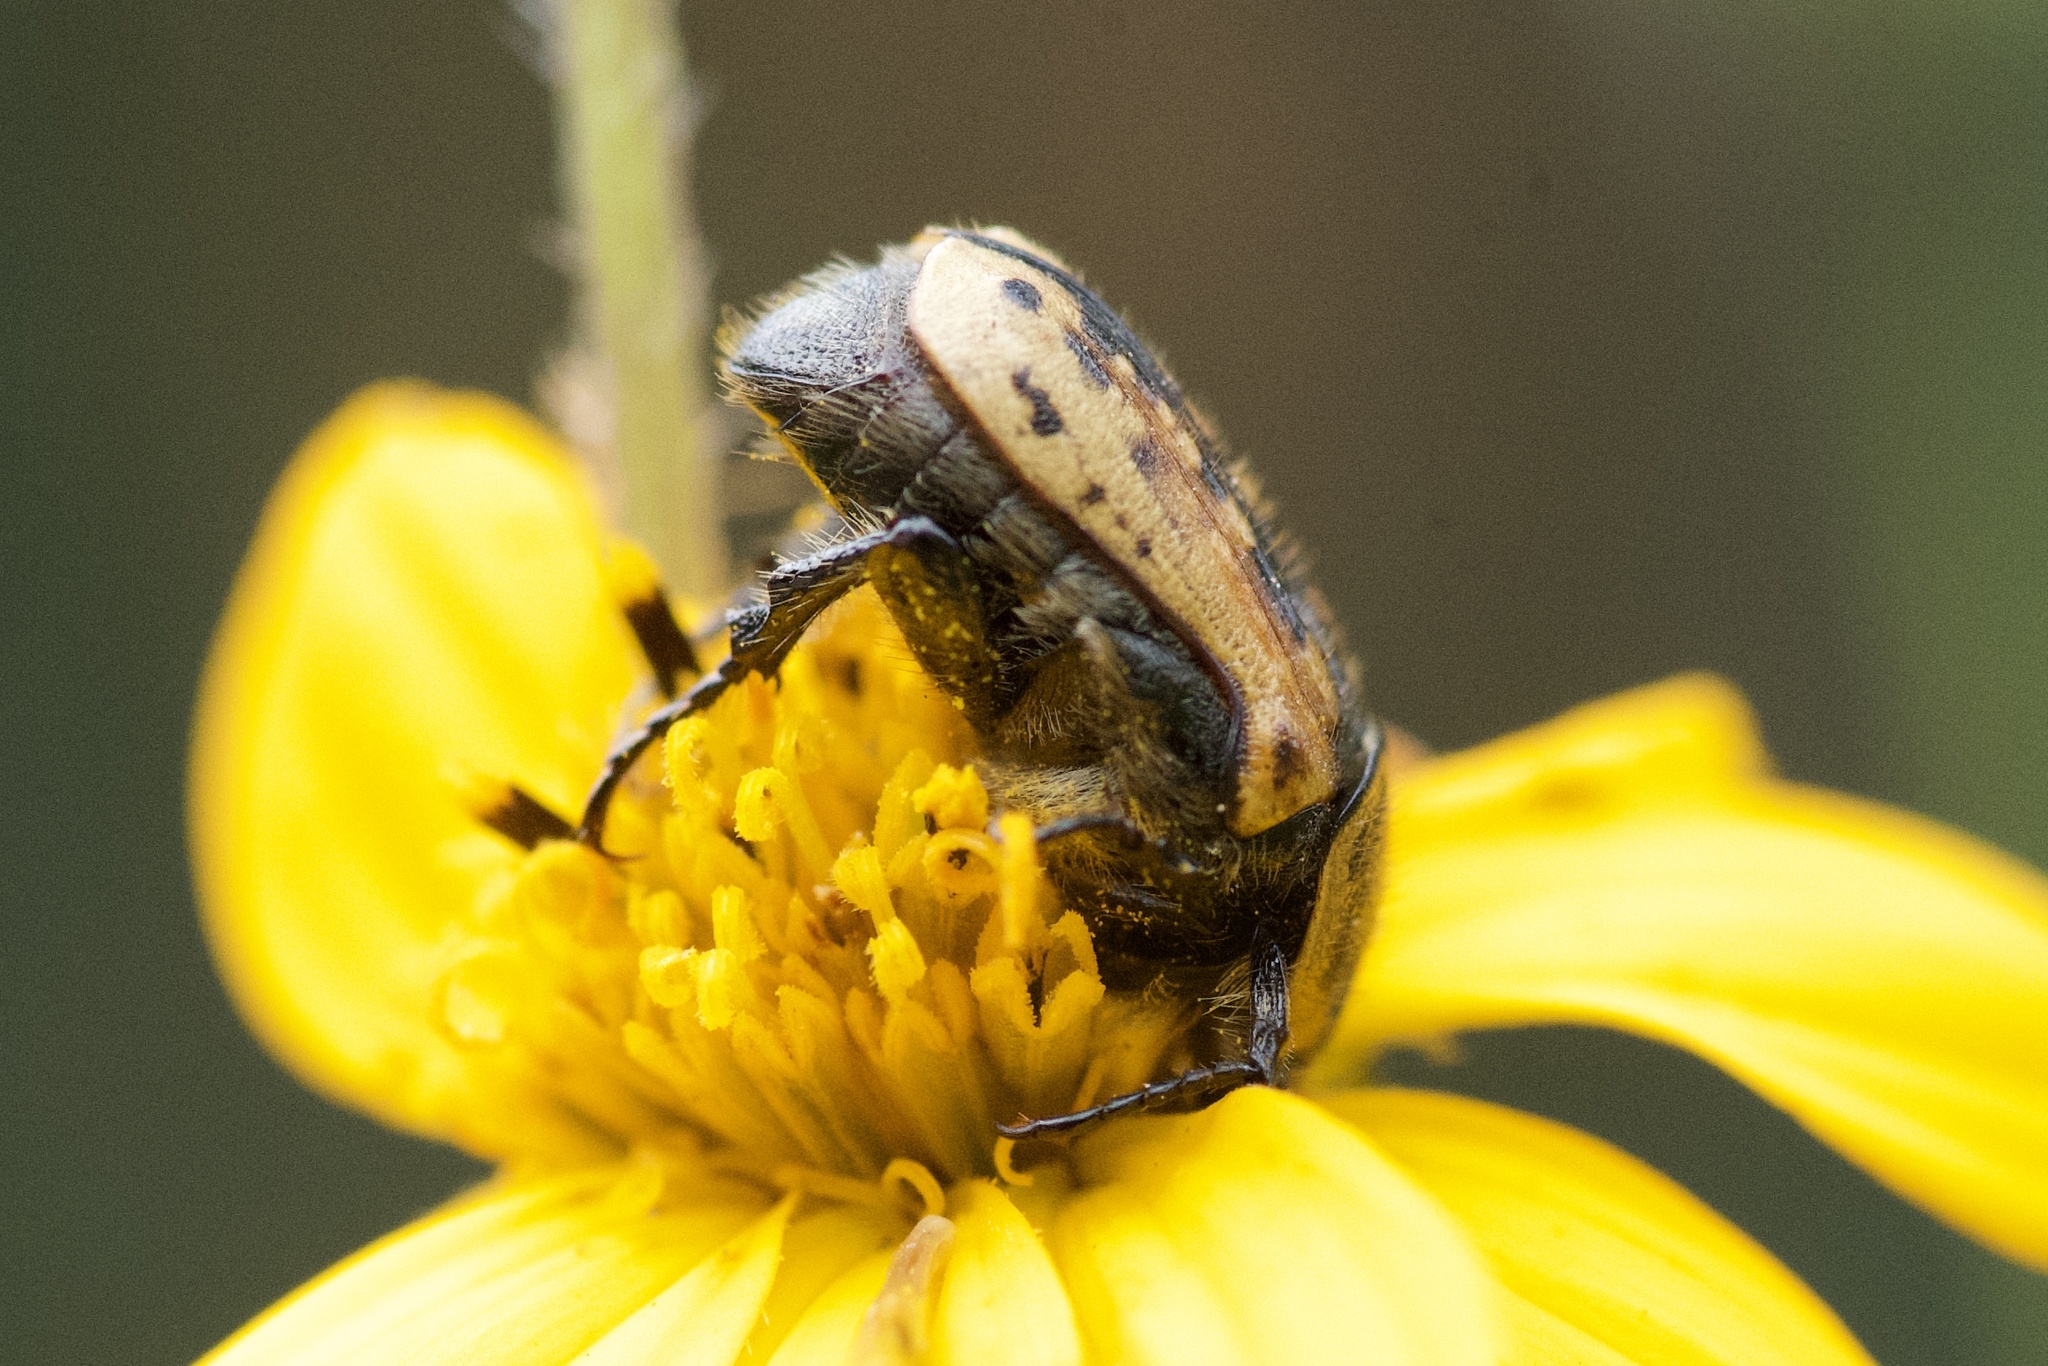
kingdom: Animalia
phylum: Arthropoda
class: Insecta
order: Coleoptera
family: Scarabaeidae
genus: Euphoria
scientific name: Euphoria kernii
